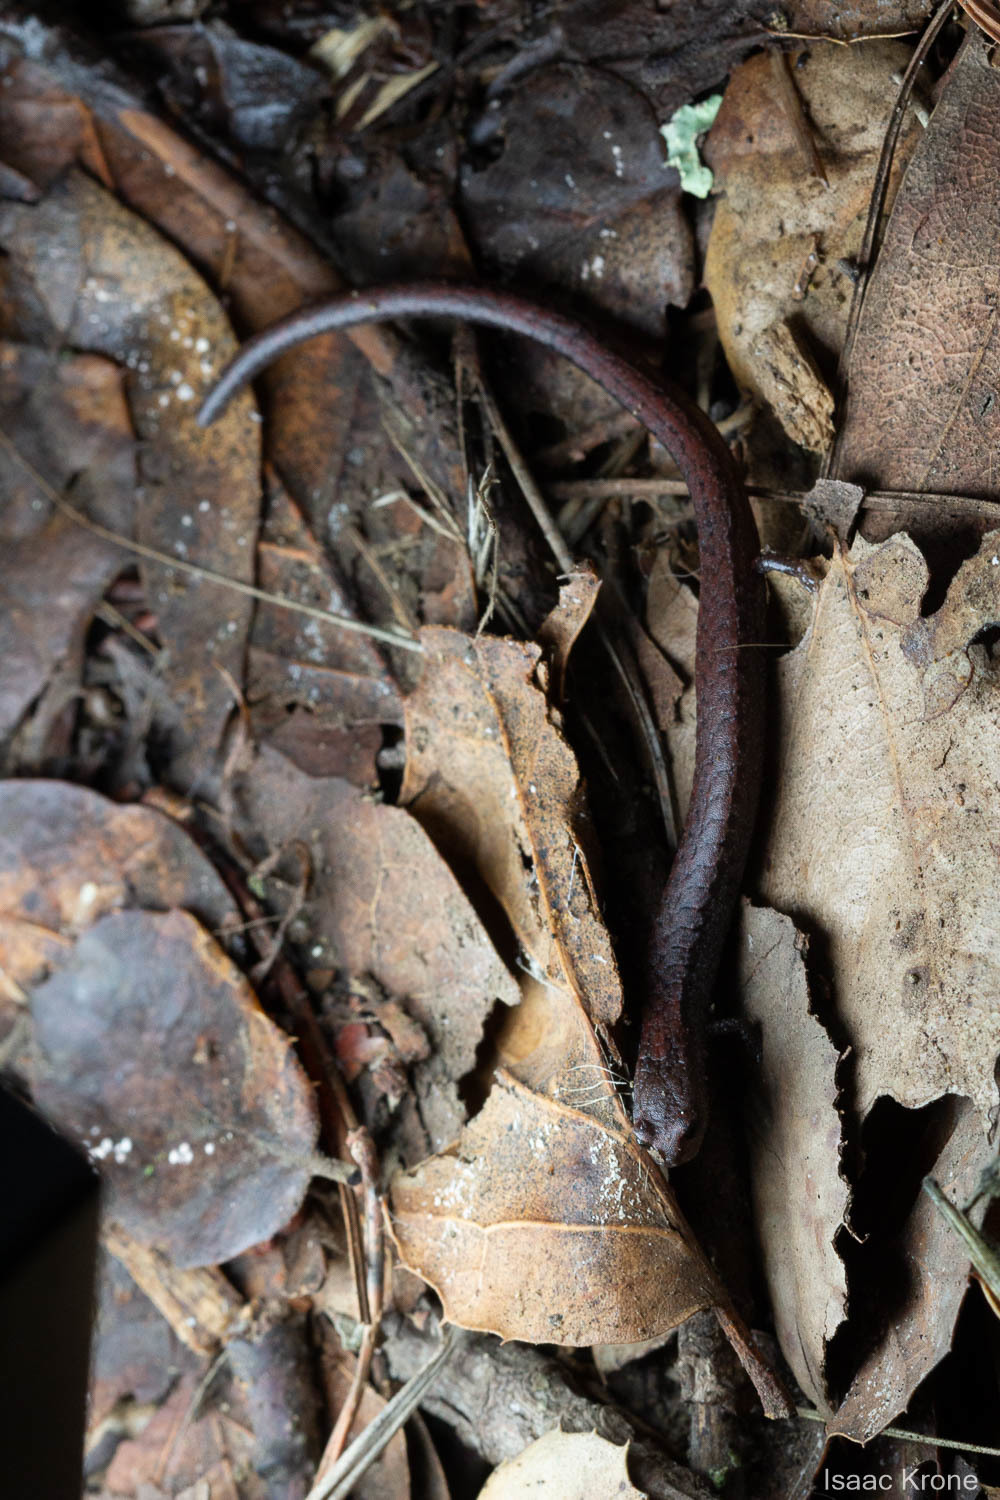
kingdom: Animalia
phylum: Chordata
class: Amphibia
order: Caudata
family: Plethodontidae
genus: Batrachoseps
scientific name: Batrachoseps attenuatus
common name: California slender salamander
